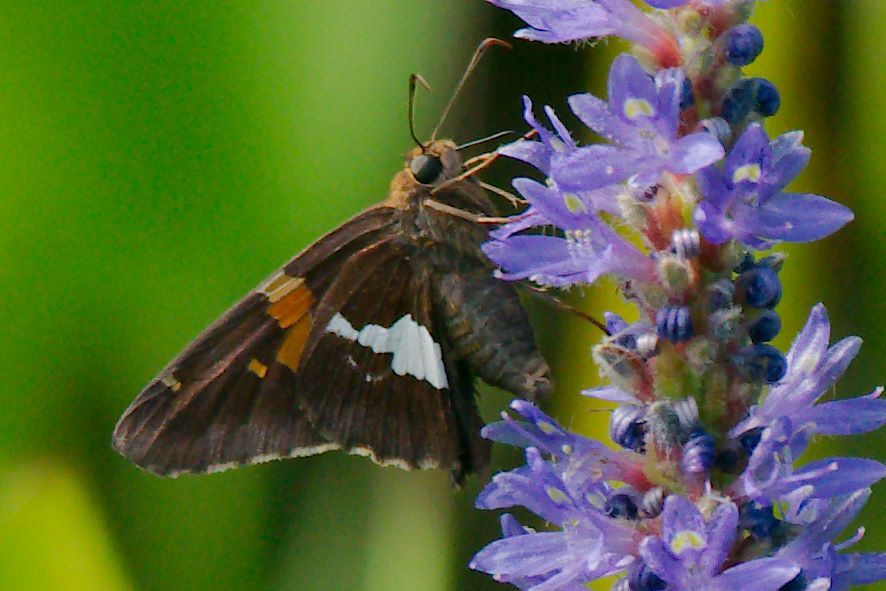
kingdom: Animalia
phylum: Arthropoda
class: Insecta
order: Lepidoptera
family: Hesperiidae
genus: Epargyreus
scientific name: Epargyreus clarus
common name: Silver-spotted skipper
